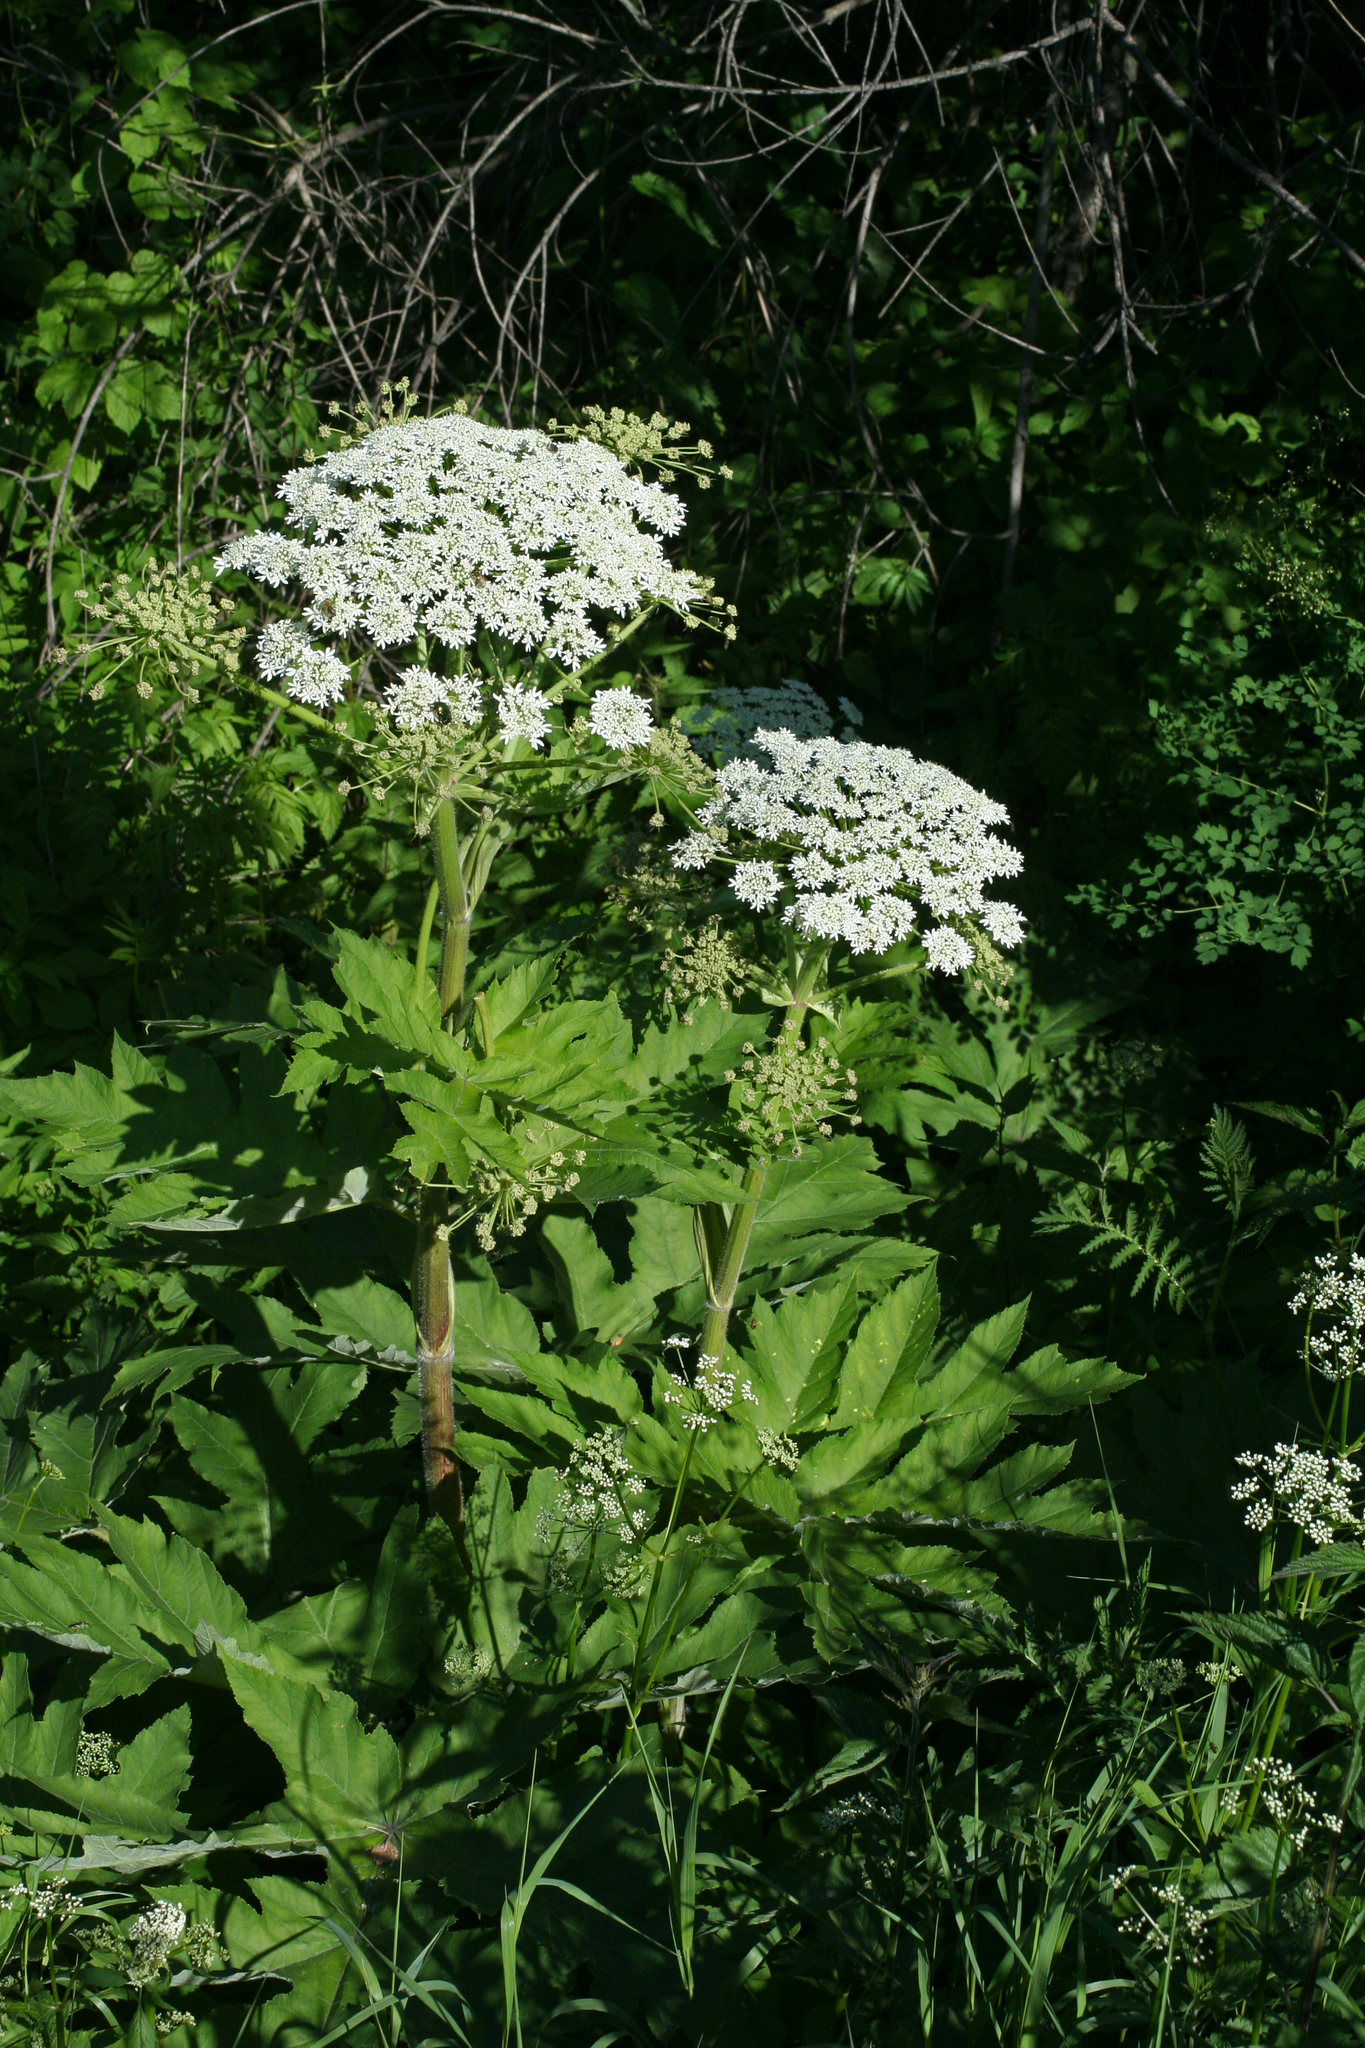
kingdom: Plantae
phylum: Tracheophyta
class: Magnoliopsida
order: Apiales
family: Apiaceae
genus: Heracleum
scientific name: Heracleum dissectum
